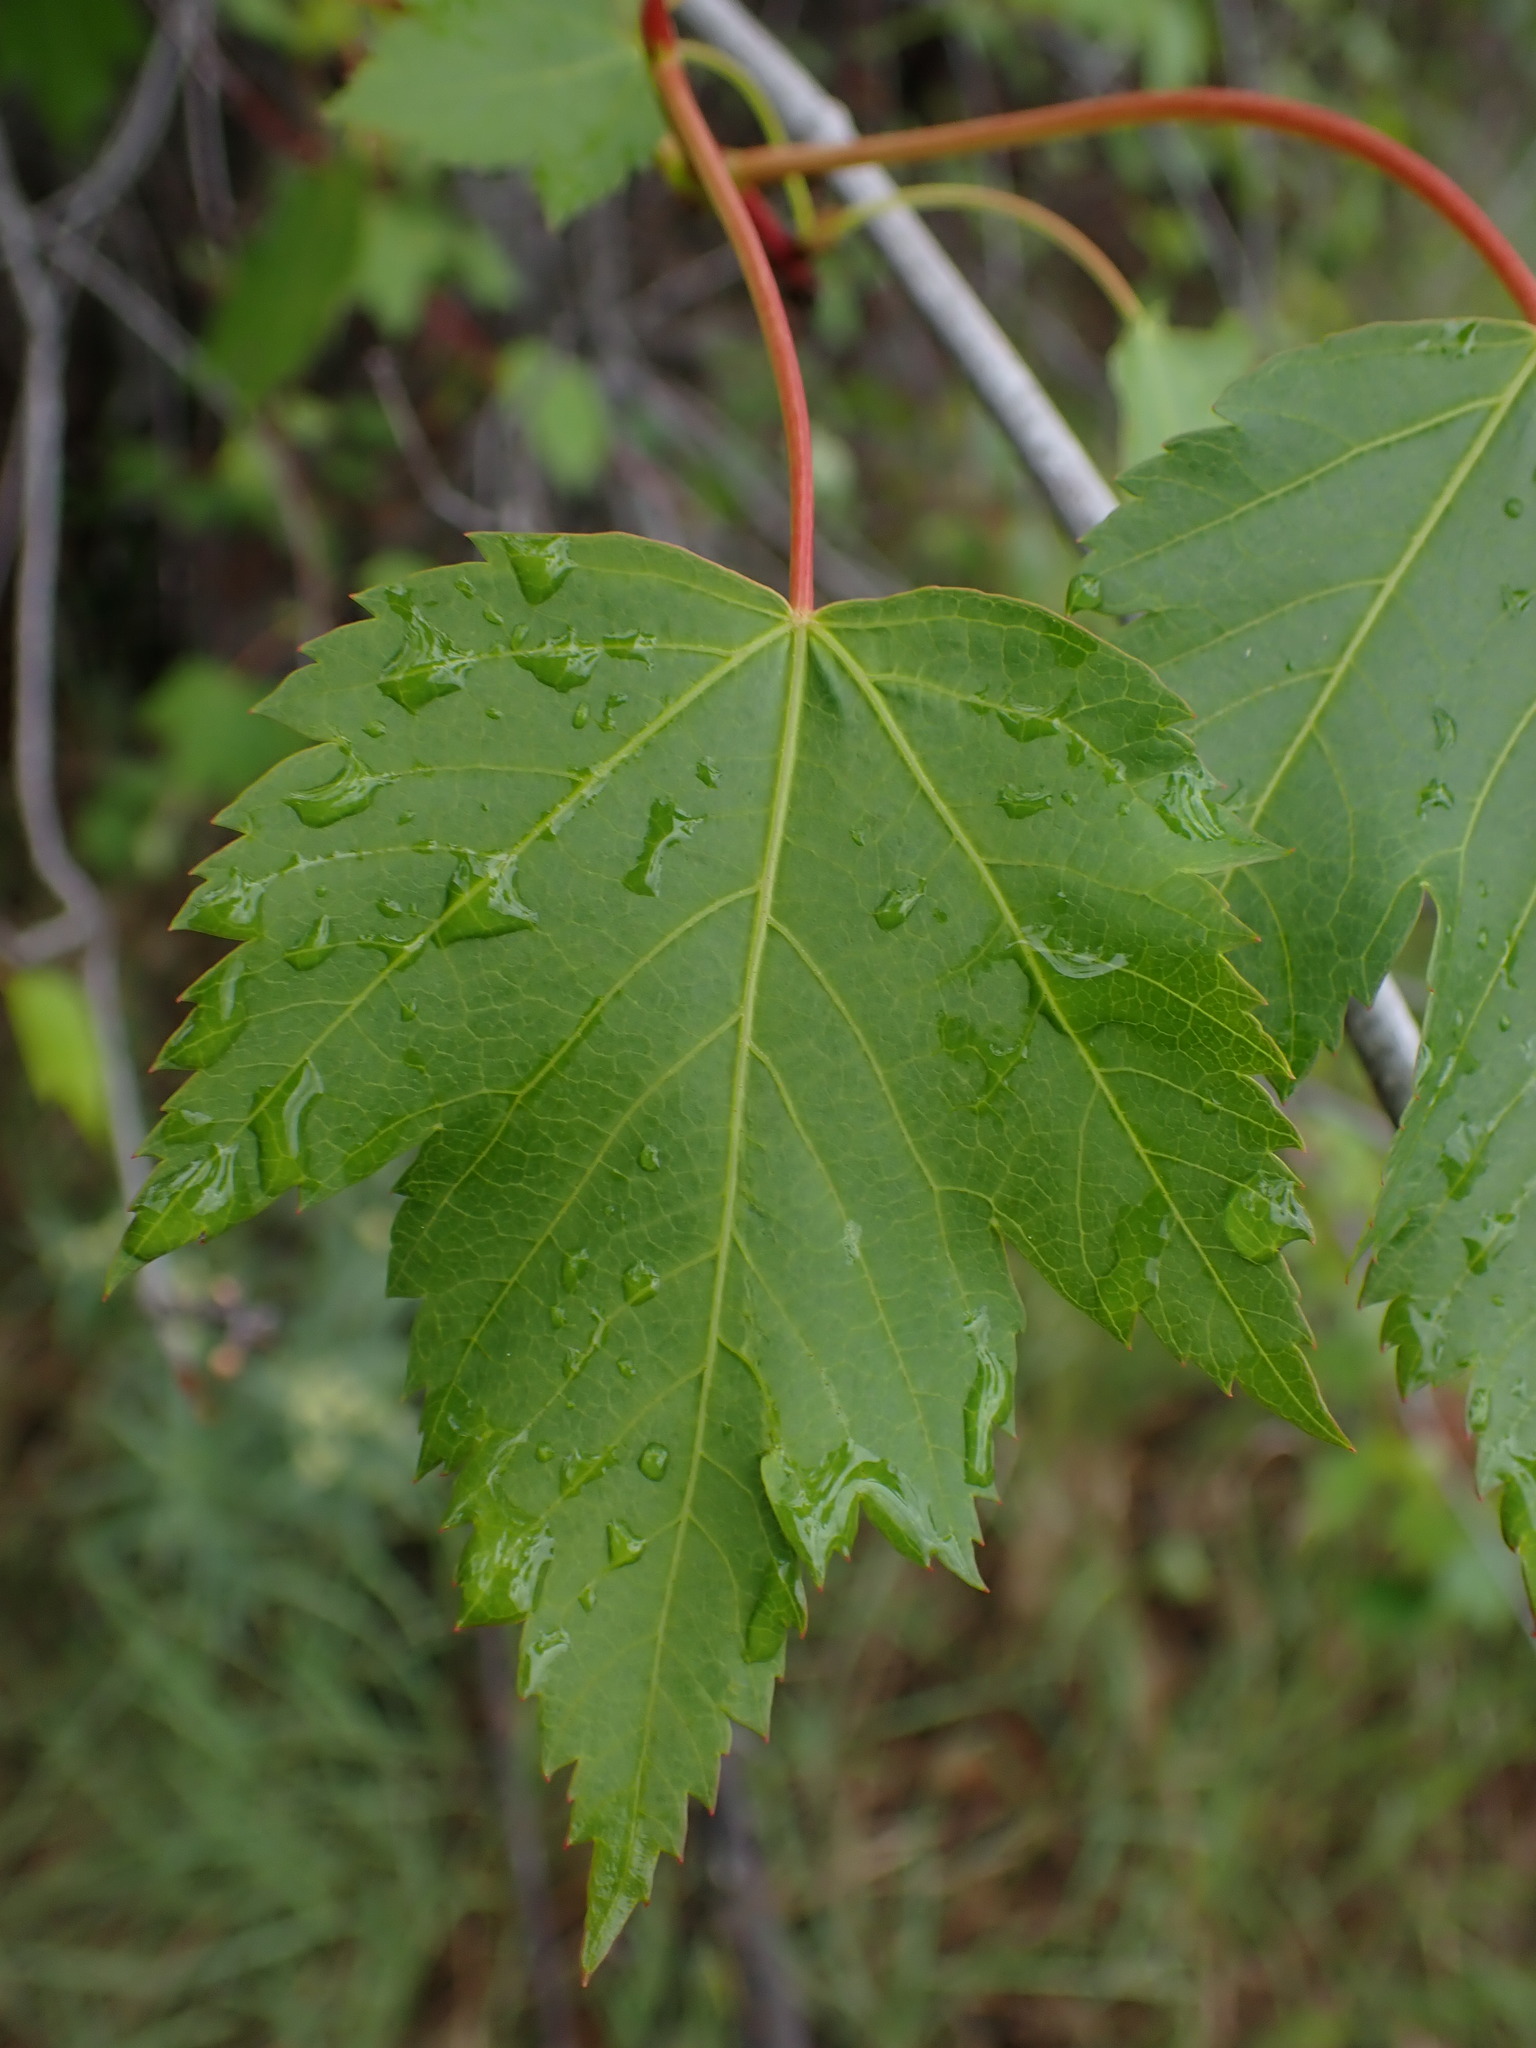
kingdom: Plantae
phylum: Tracheophyta
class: Magnoliopsida
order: Sapindales
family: Sapindaceae
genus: Acer
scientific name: Acer glabrum
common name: Rocky mountain maple
